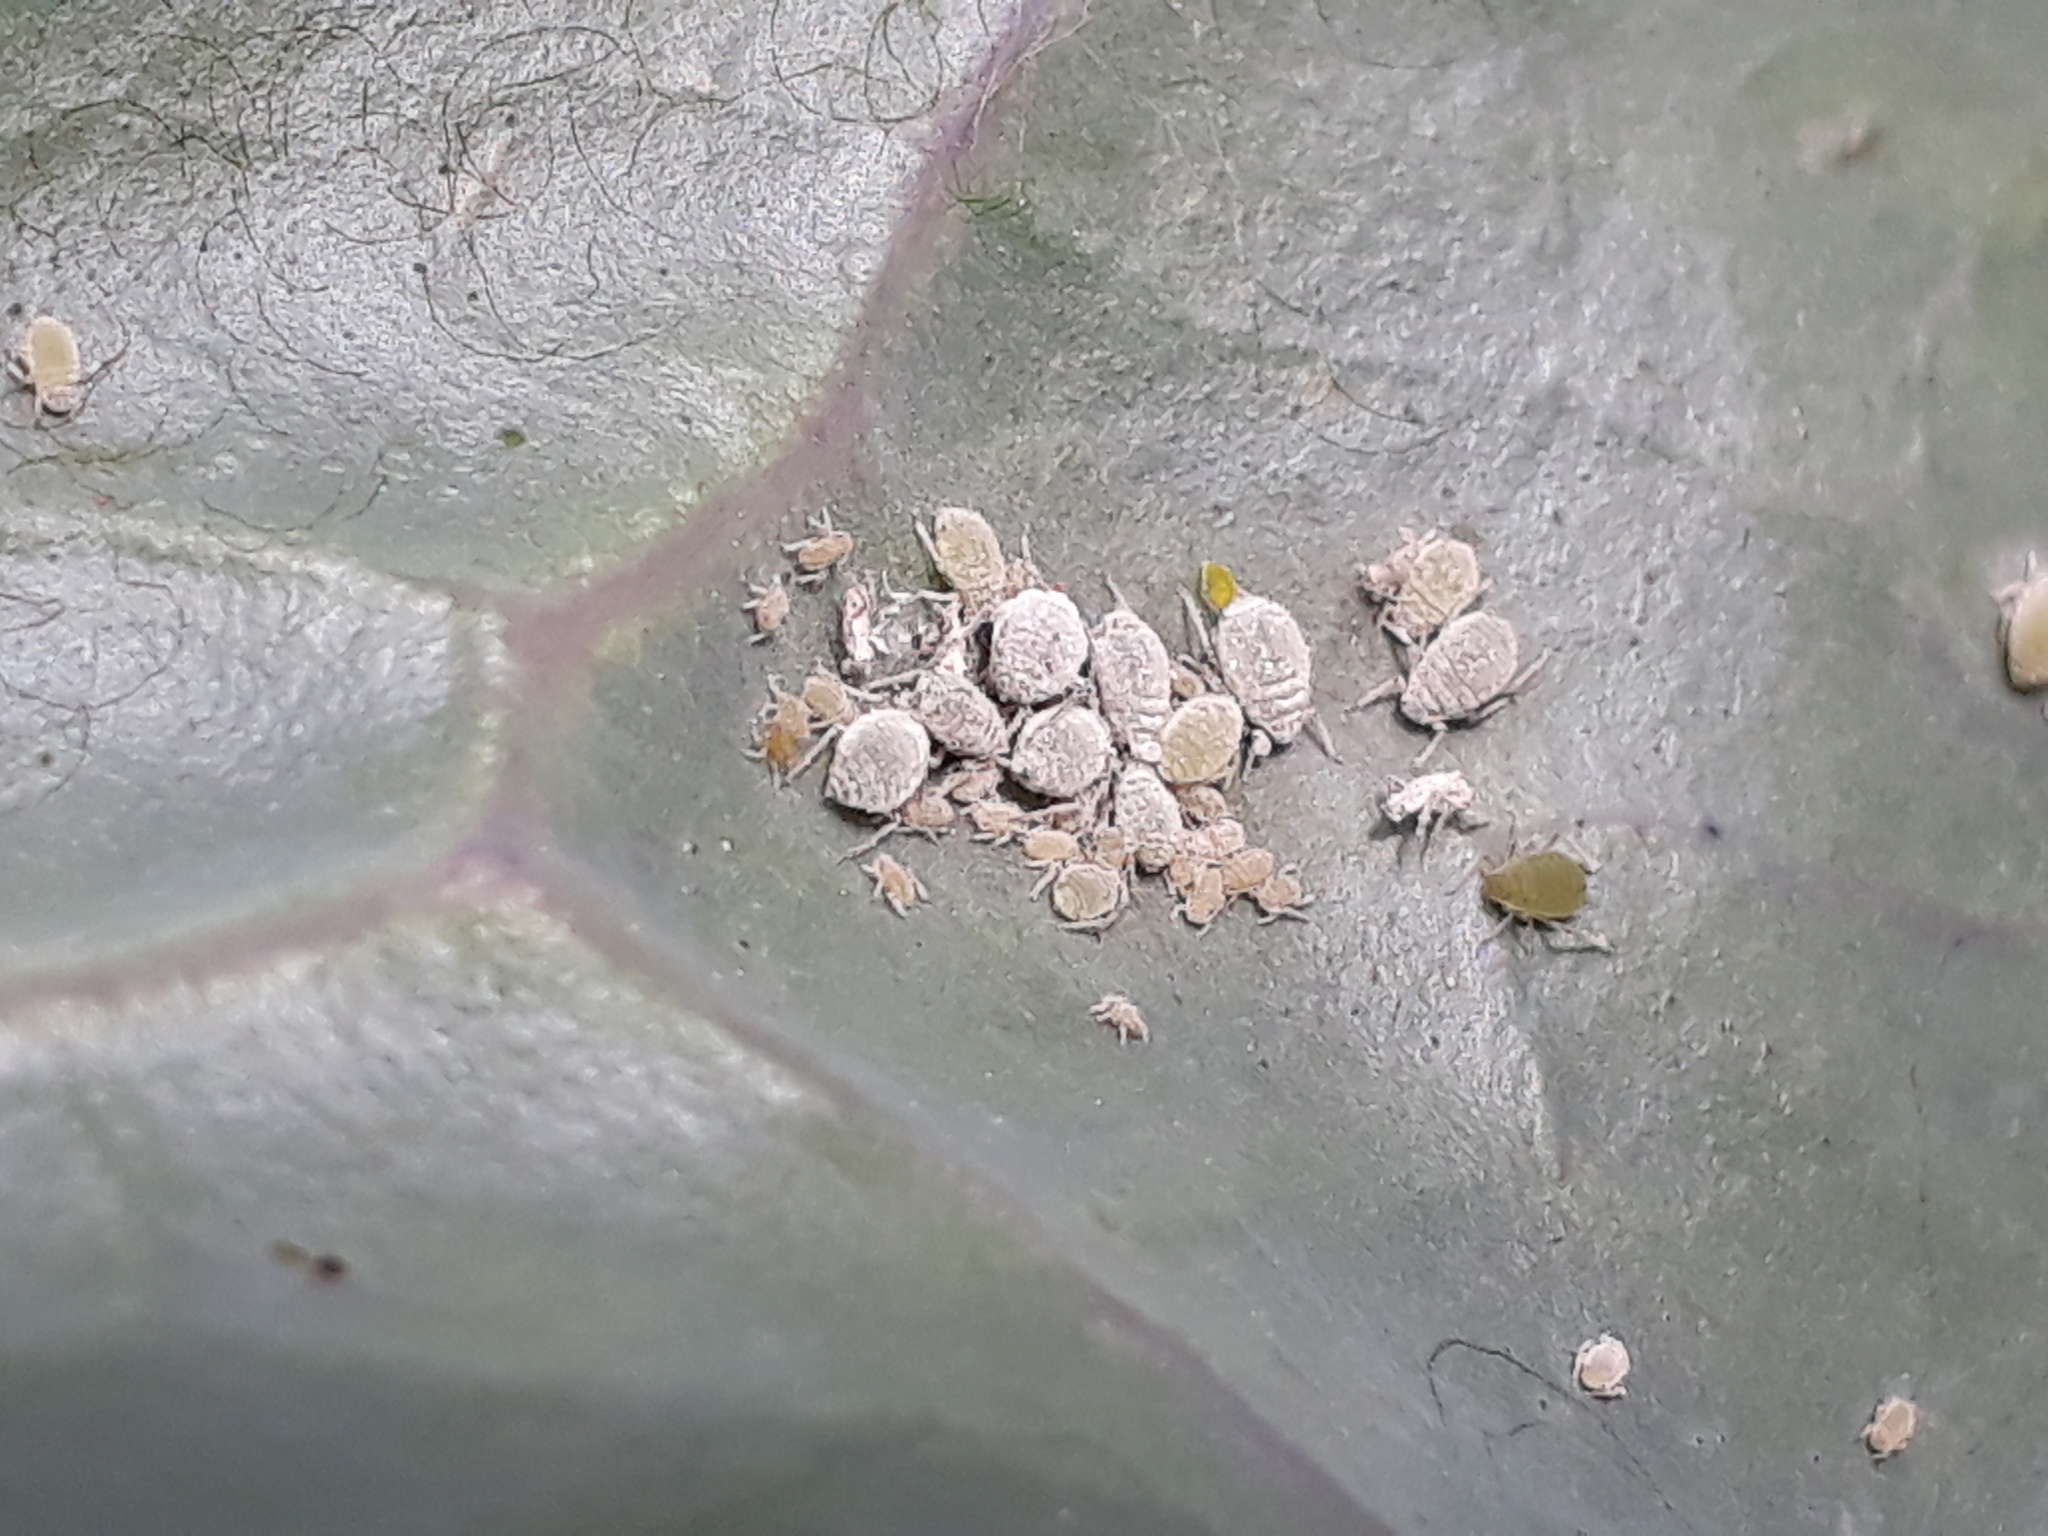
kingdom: Animalia
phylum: Arthropoda
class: Insecta
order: Hemiptera
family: Aphididae
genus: Brevicoryne
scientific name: Brevicoryne brassicae
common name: Cabbage aphid
